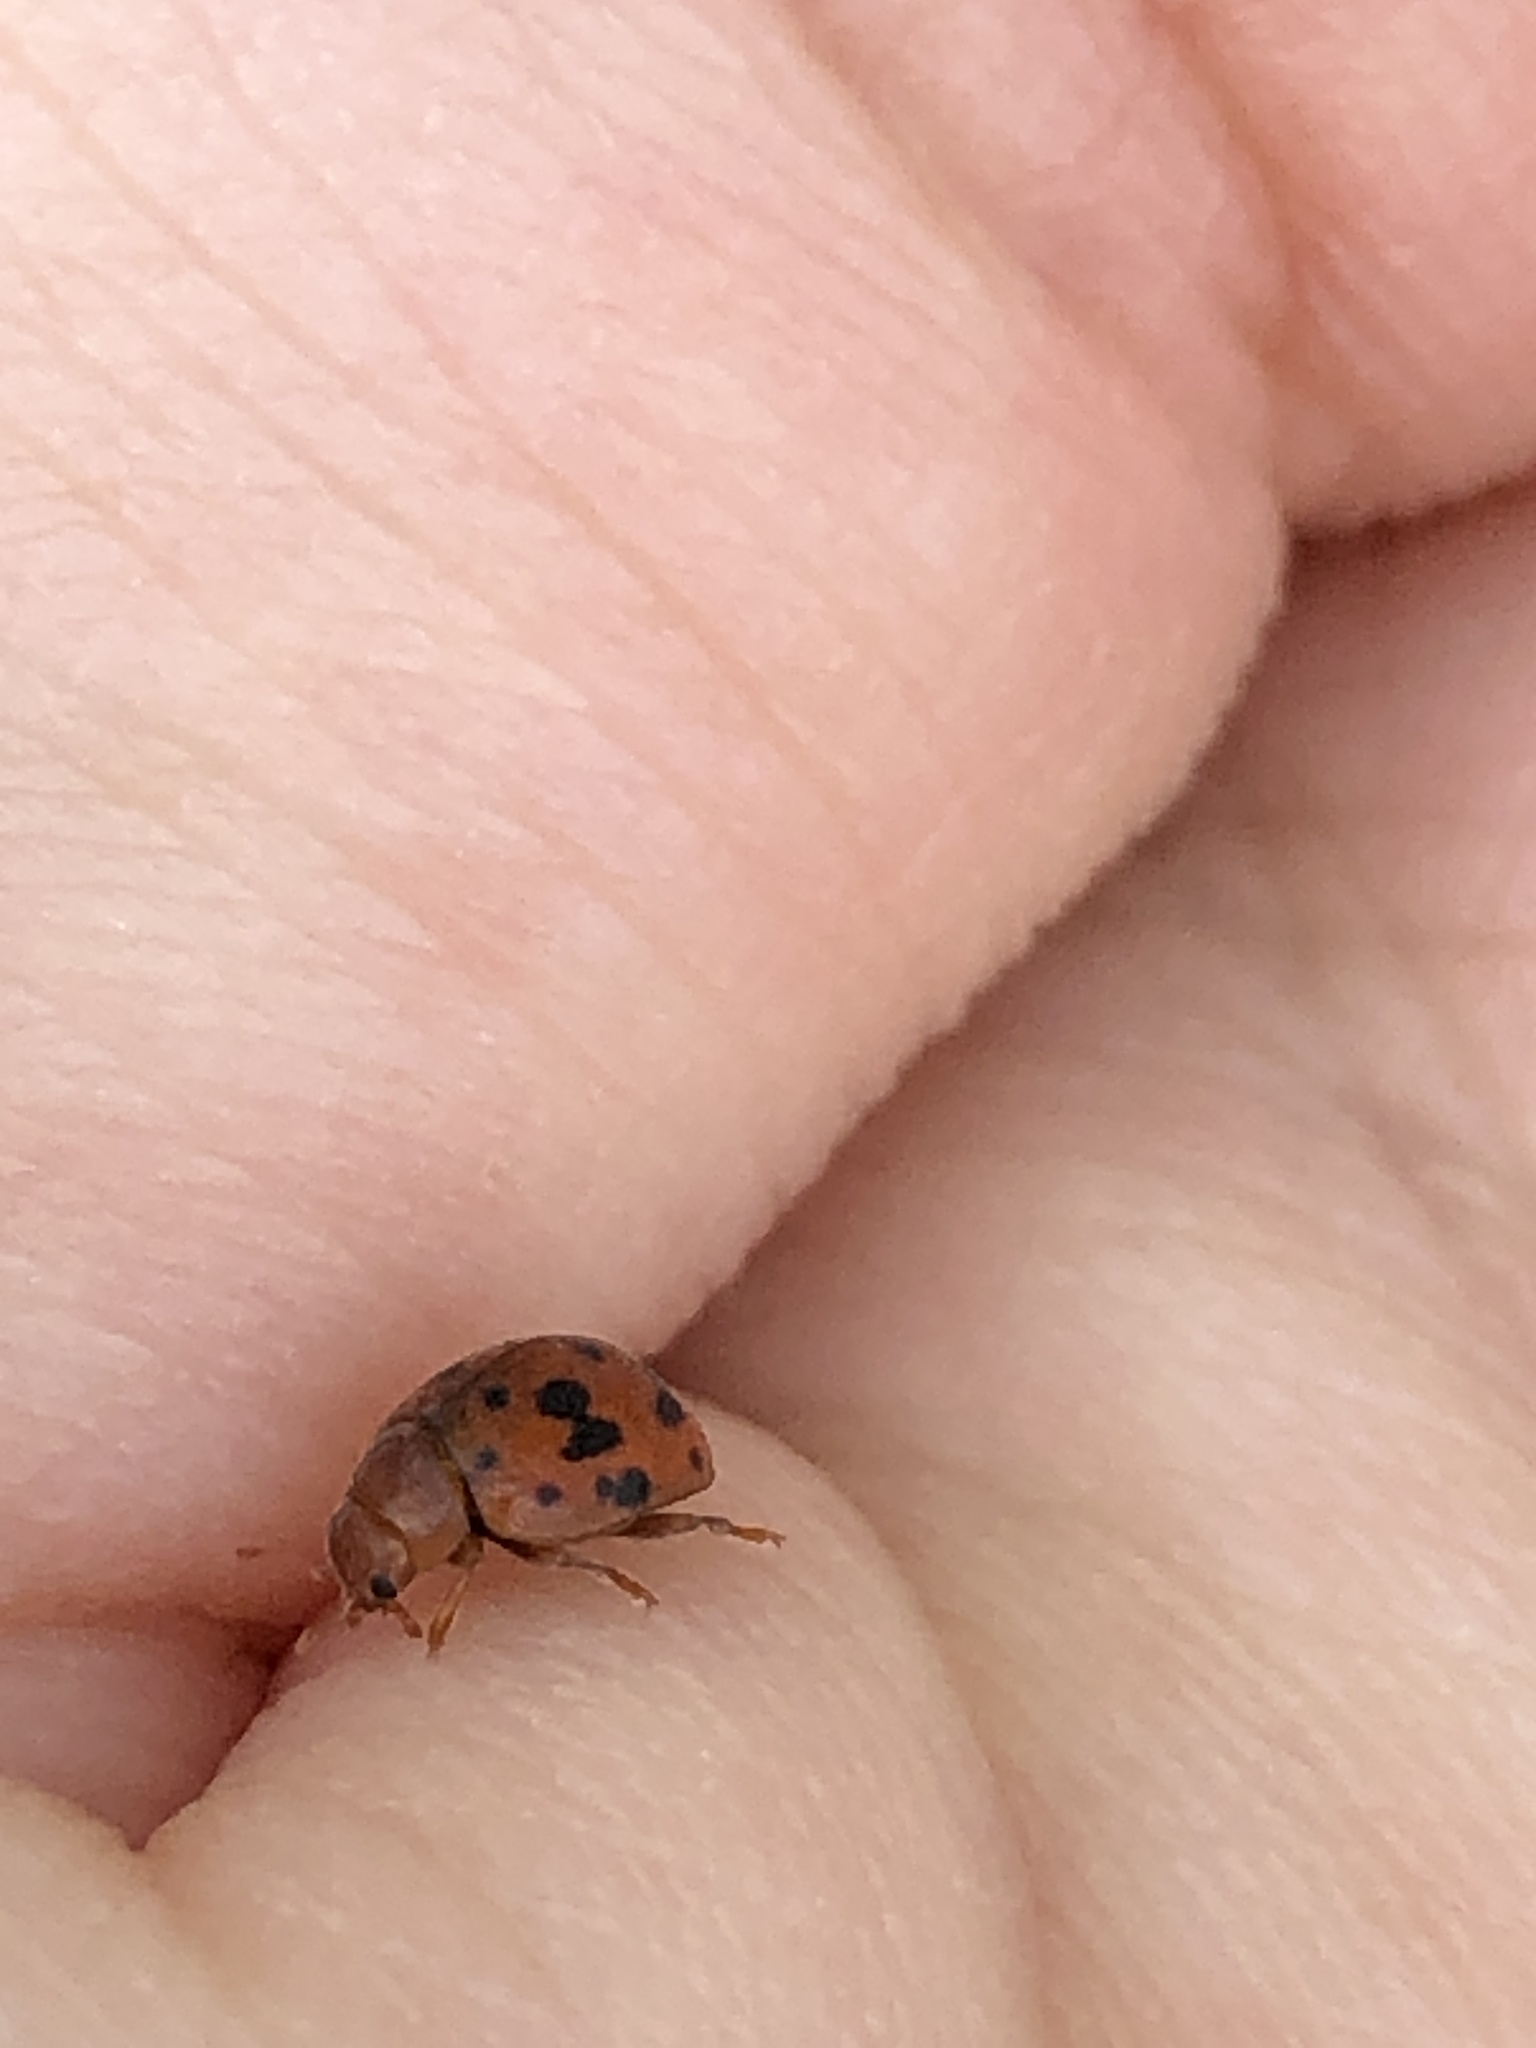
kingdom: Animalia
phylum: Arthropoda
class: Insecta
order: Coleoptera
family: Coccinellidae
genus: Subcoccinella
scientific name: Subcoccinella vigintiquatuorpunctata
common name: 24-spot ladybird
